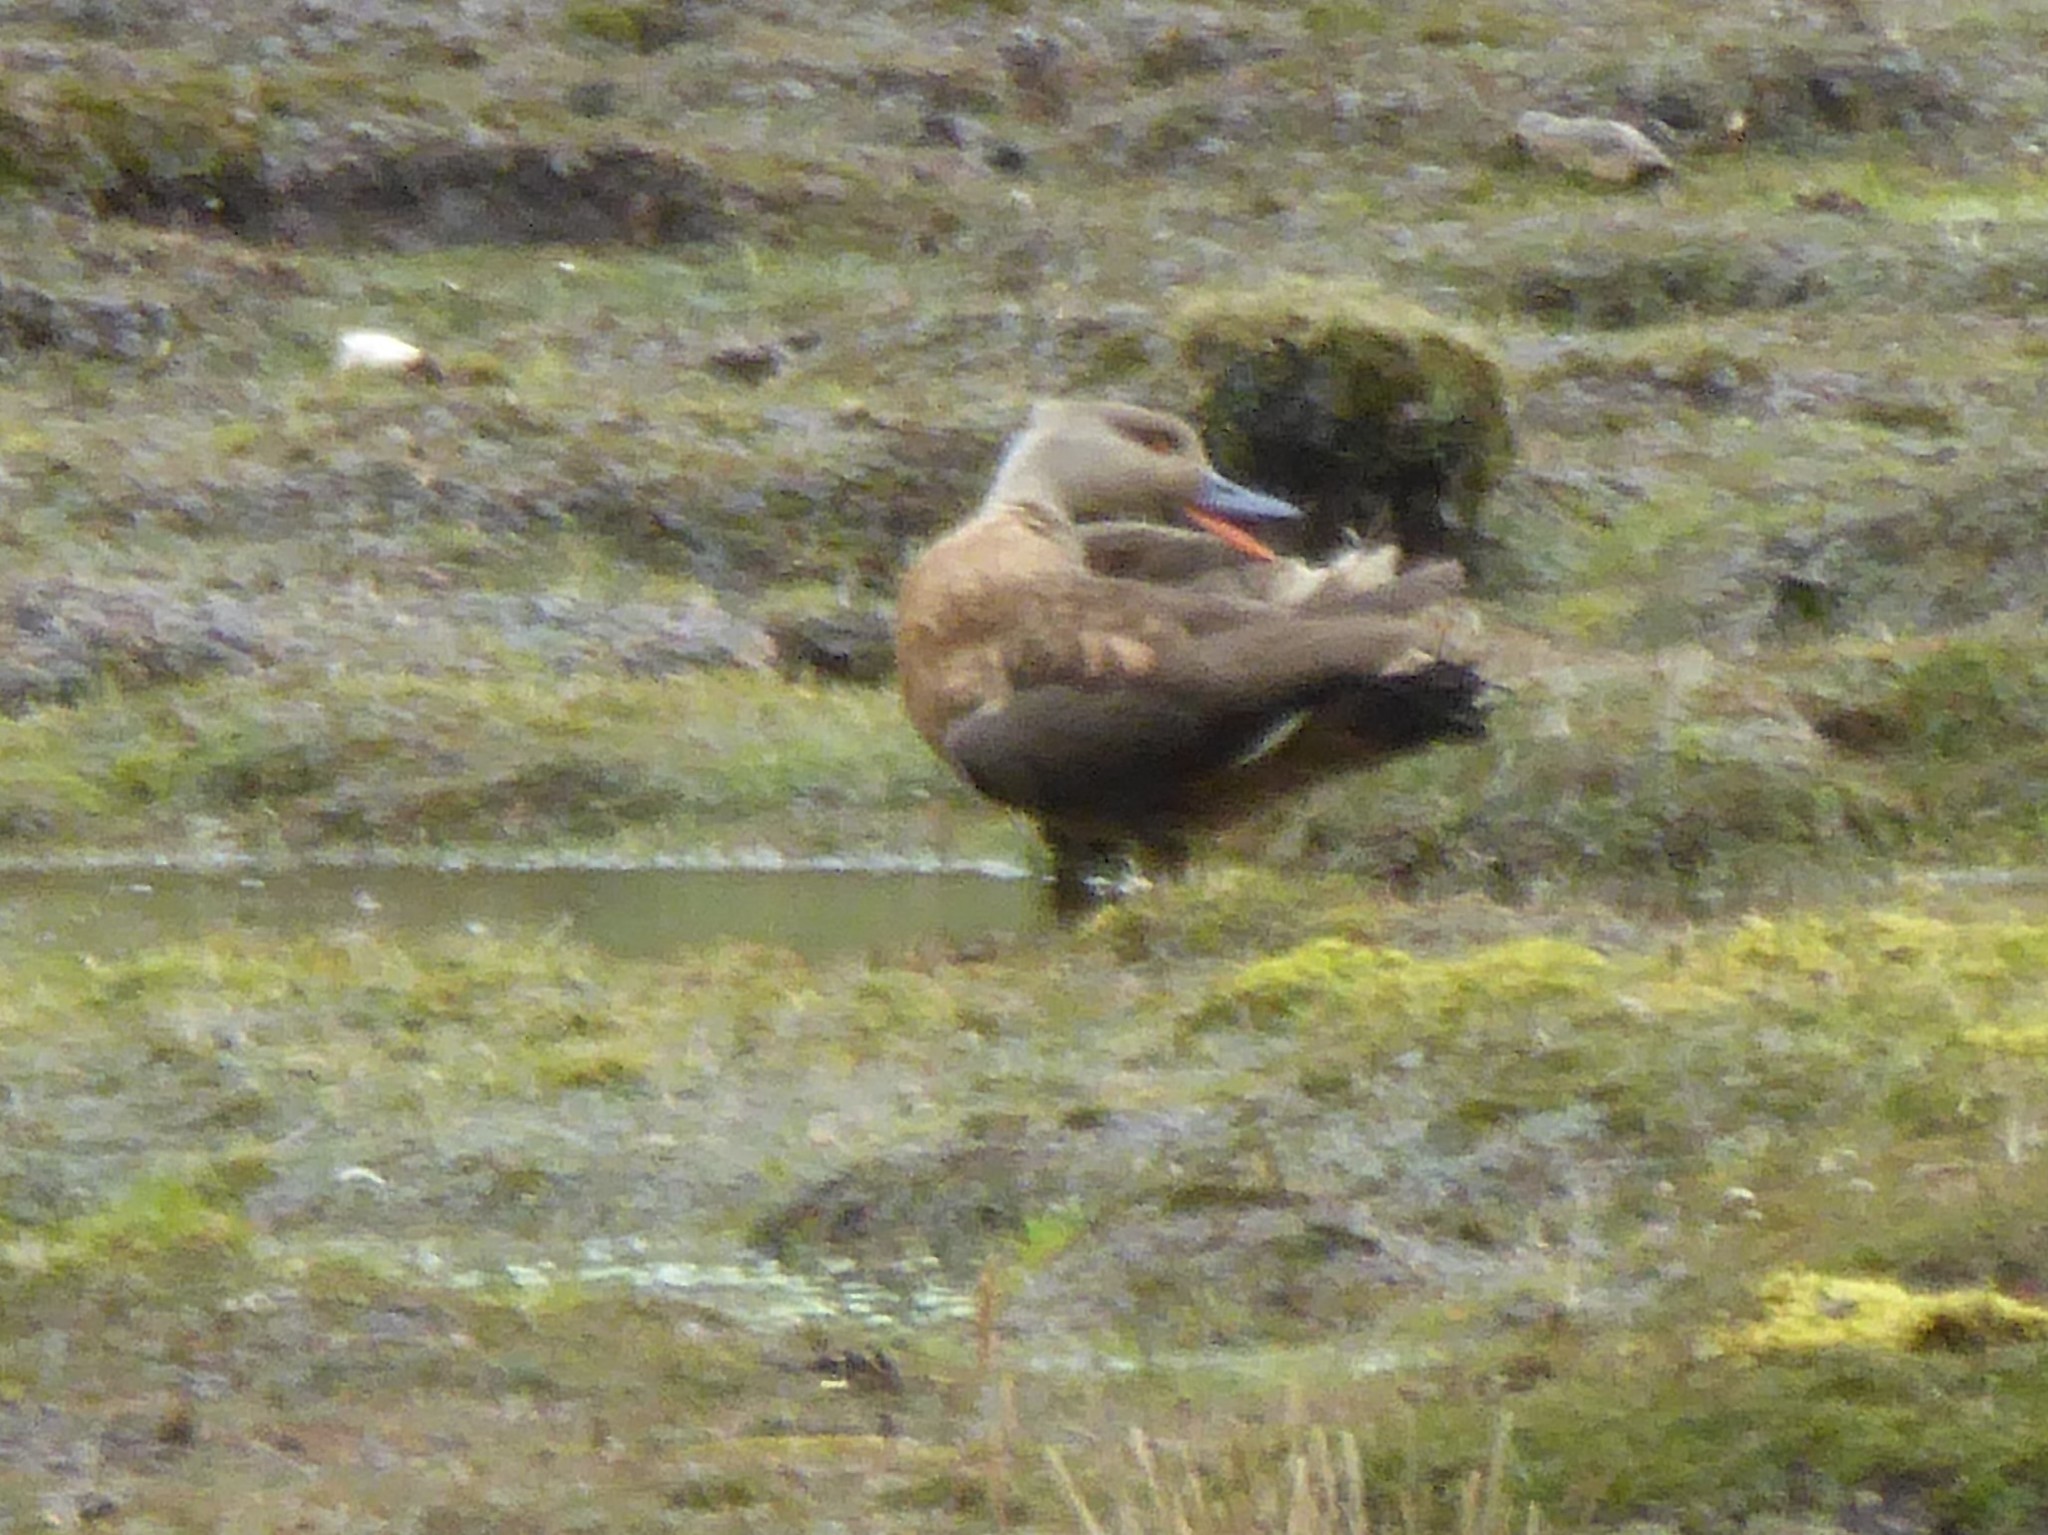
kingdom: Animalia
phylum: Chordata
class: Aves
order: Anseriformes
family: Anatidae
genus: Lophonetta
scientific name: Lophonetta specularioides
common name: Crested duck
